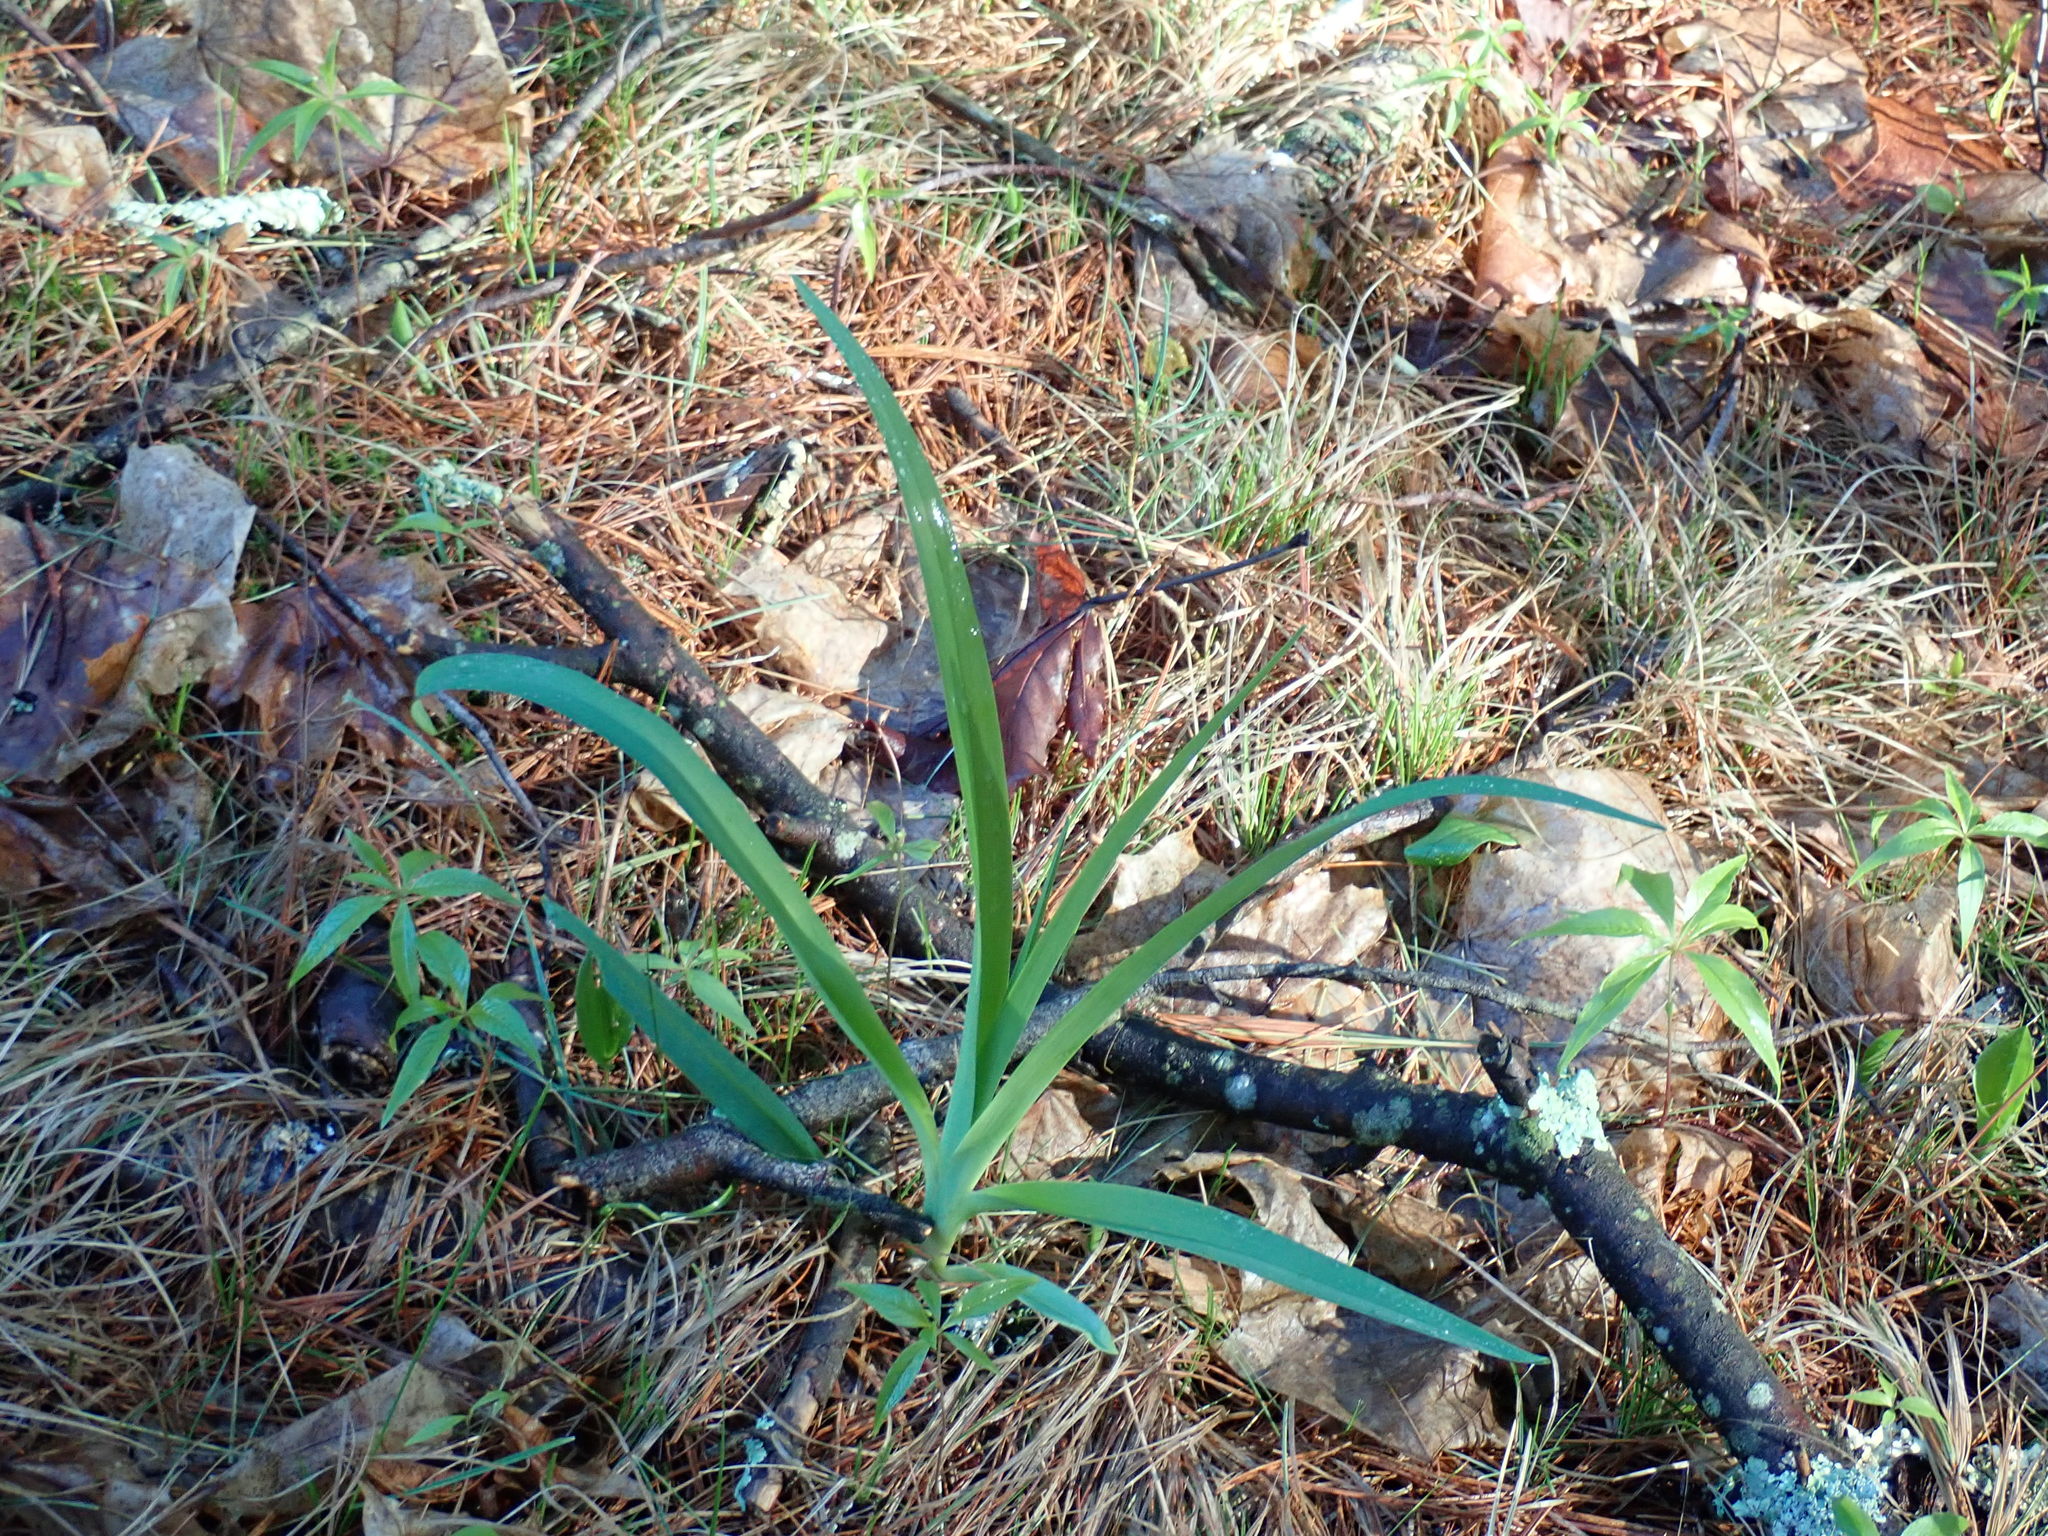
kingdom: Plantae
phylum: Tracheophyta
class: Liliopsida
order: Asparagales
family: Asphodelaceae
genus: Hemerocallis
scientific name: Hemerocallis
